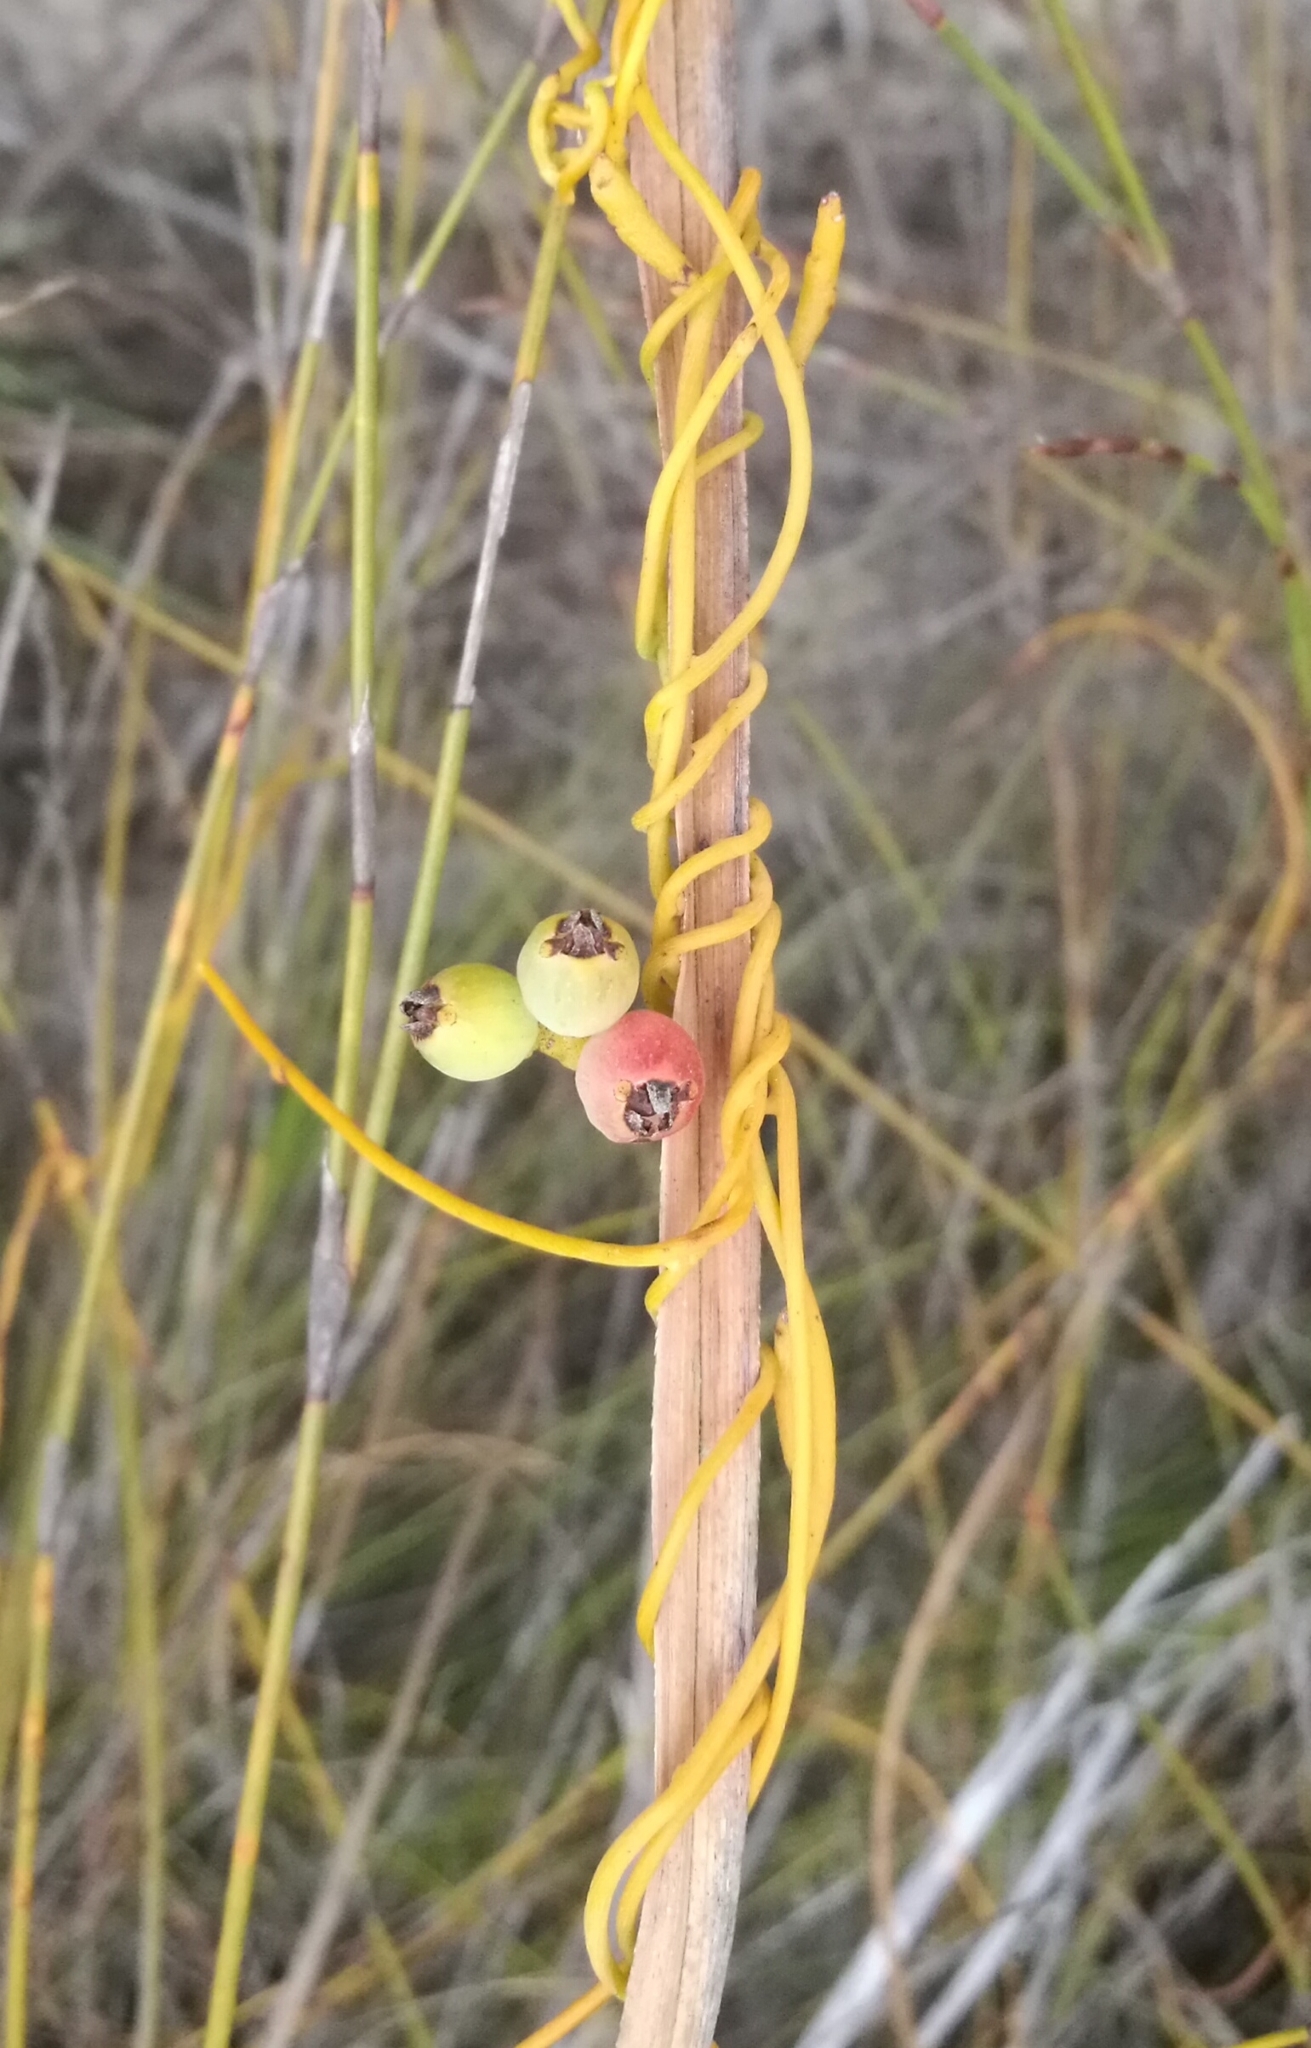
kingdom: Plantae
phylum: Tracheophyta
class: Magnoliopsida
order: Laurales
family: Lauraceae
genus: Cassytha
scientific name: Cassytha ciliolata
